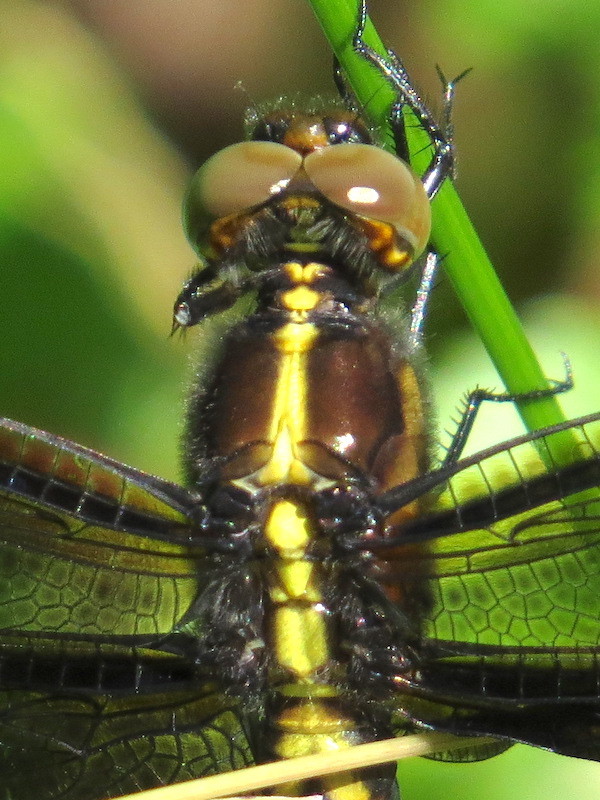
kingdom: Animalia
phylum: Arthropoda
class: Insecta
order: Odonata
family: Libellulidae
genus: Libellula
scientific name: Libellula luctuosa
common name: Widow skimmer
